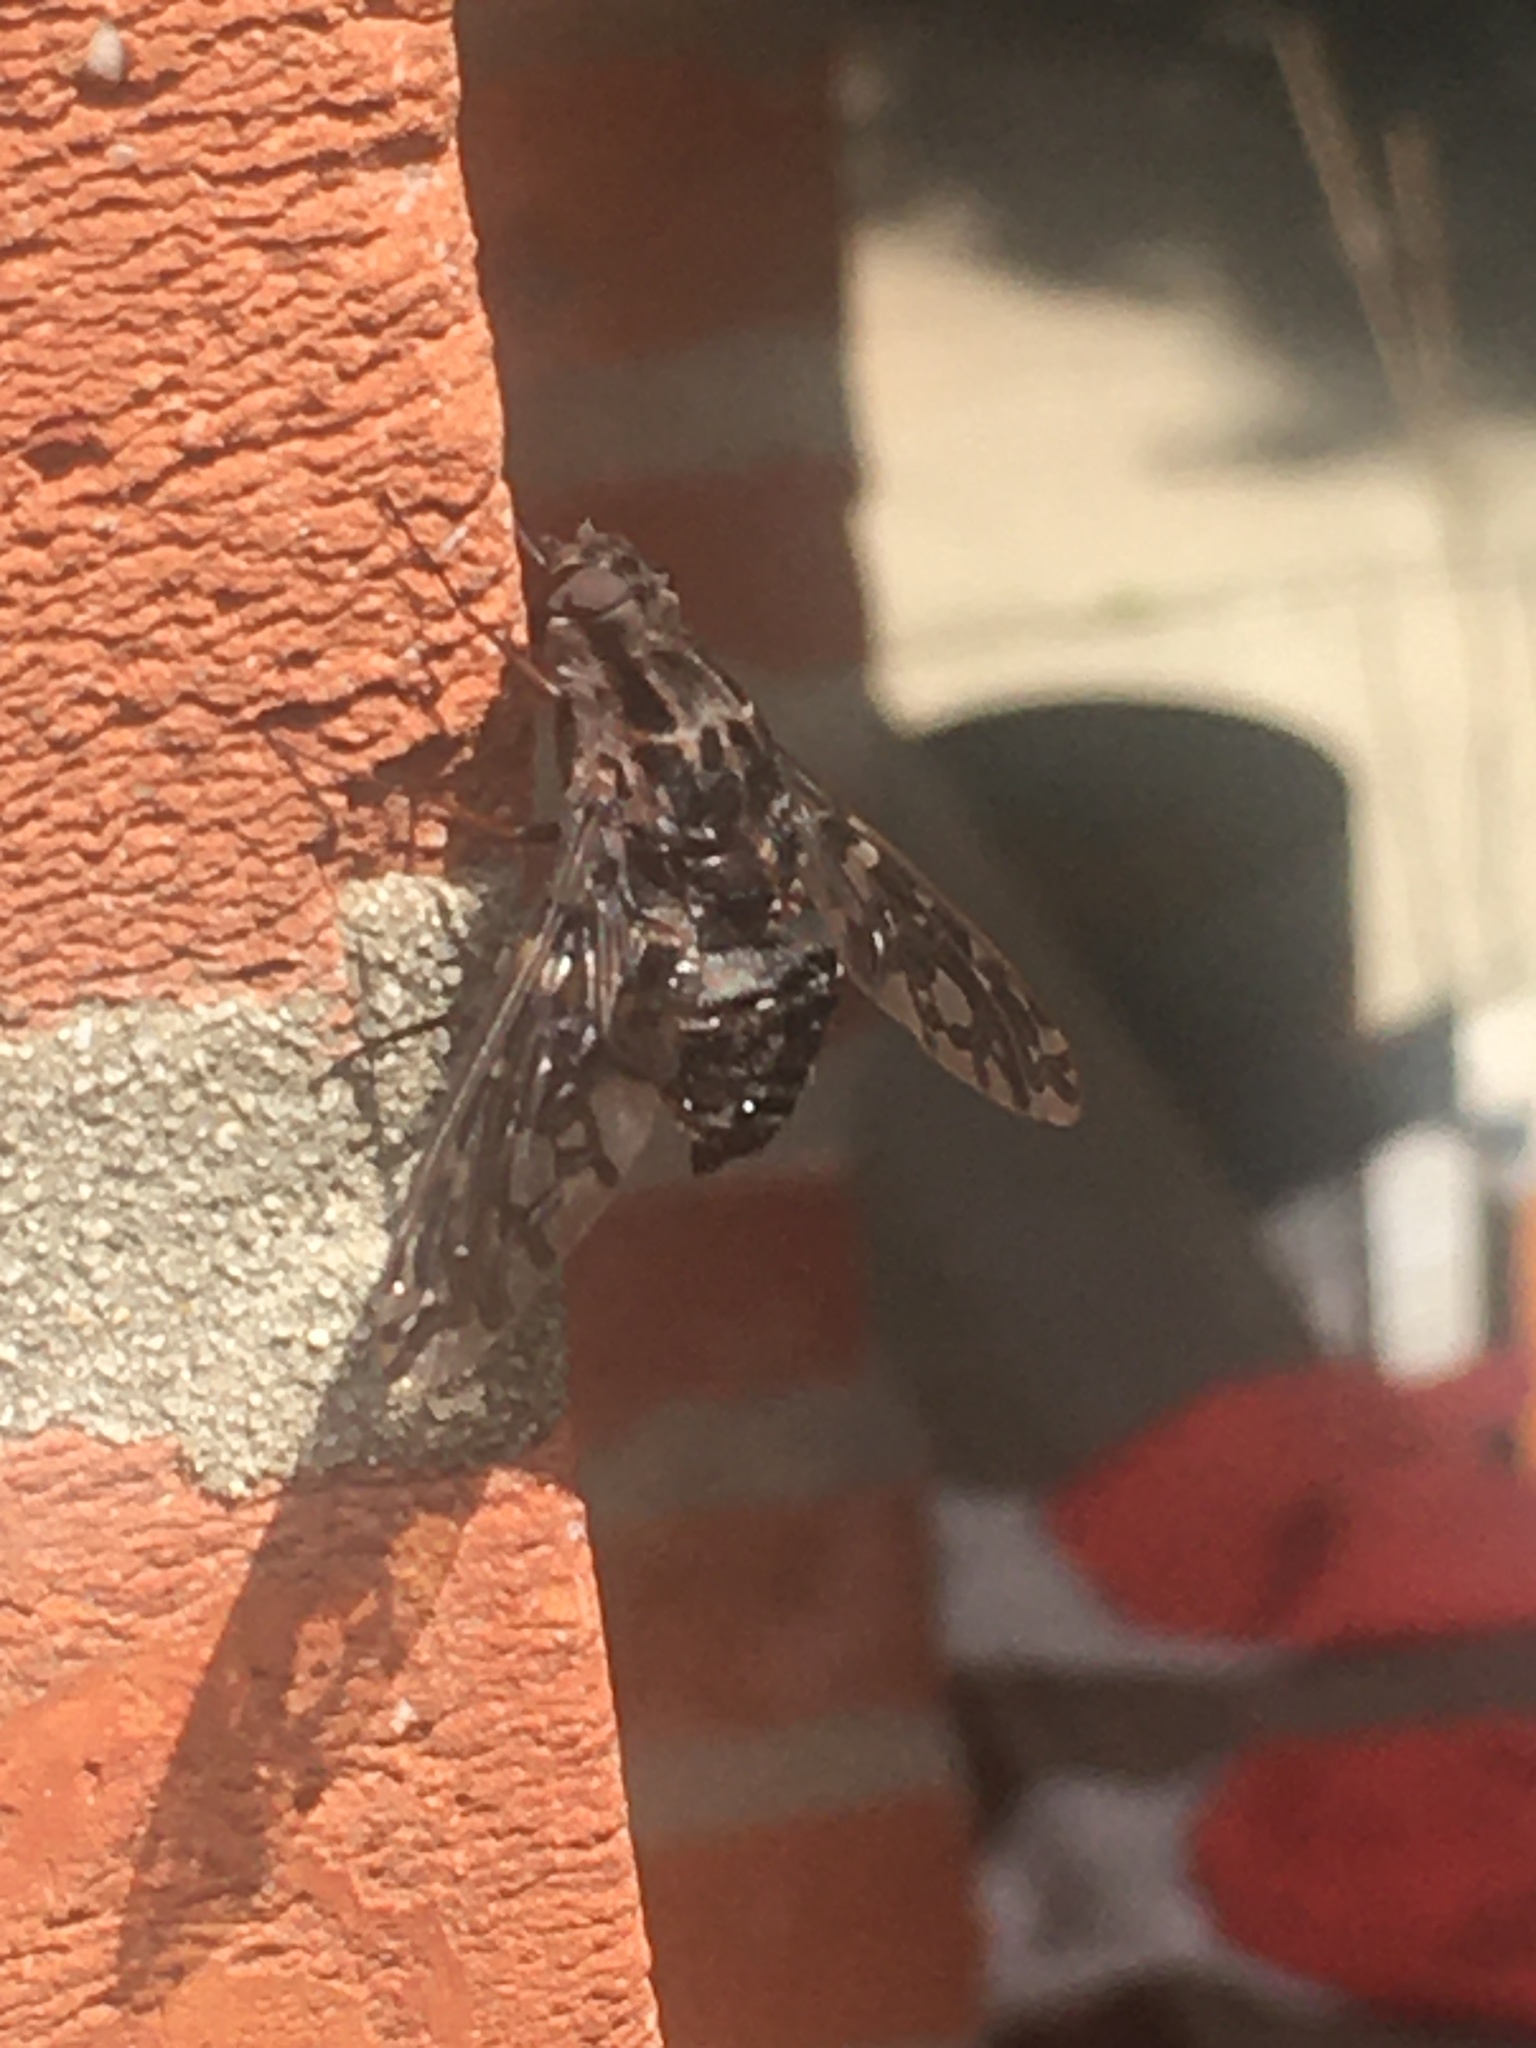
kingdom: Animalia
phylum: Arthropoda
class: Insecta
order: Diptera
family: Bombyliidae
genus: Xenox
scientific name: Xenox tigrinus
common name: Tiger bee fly
